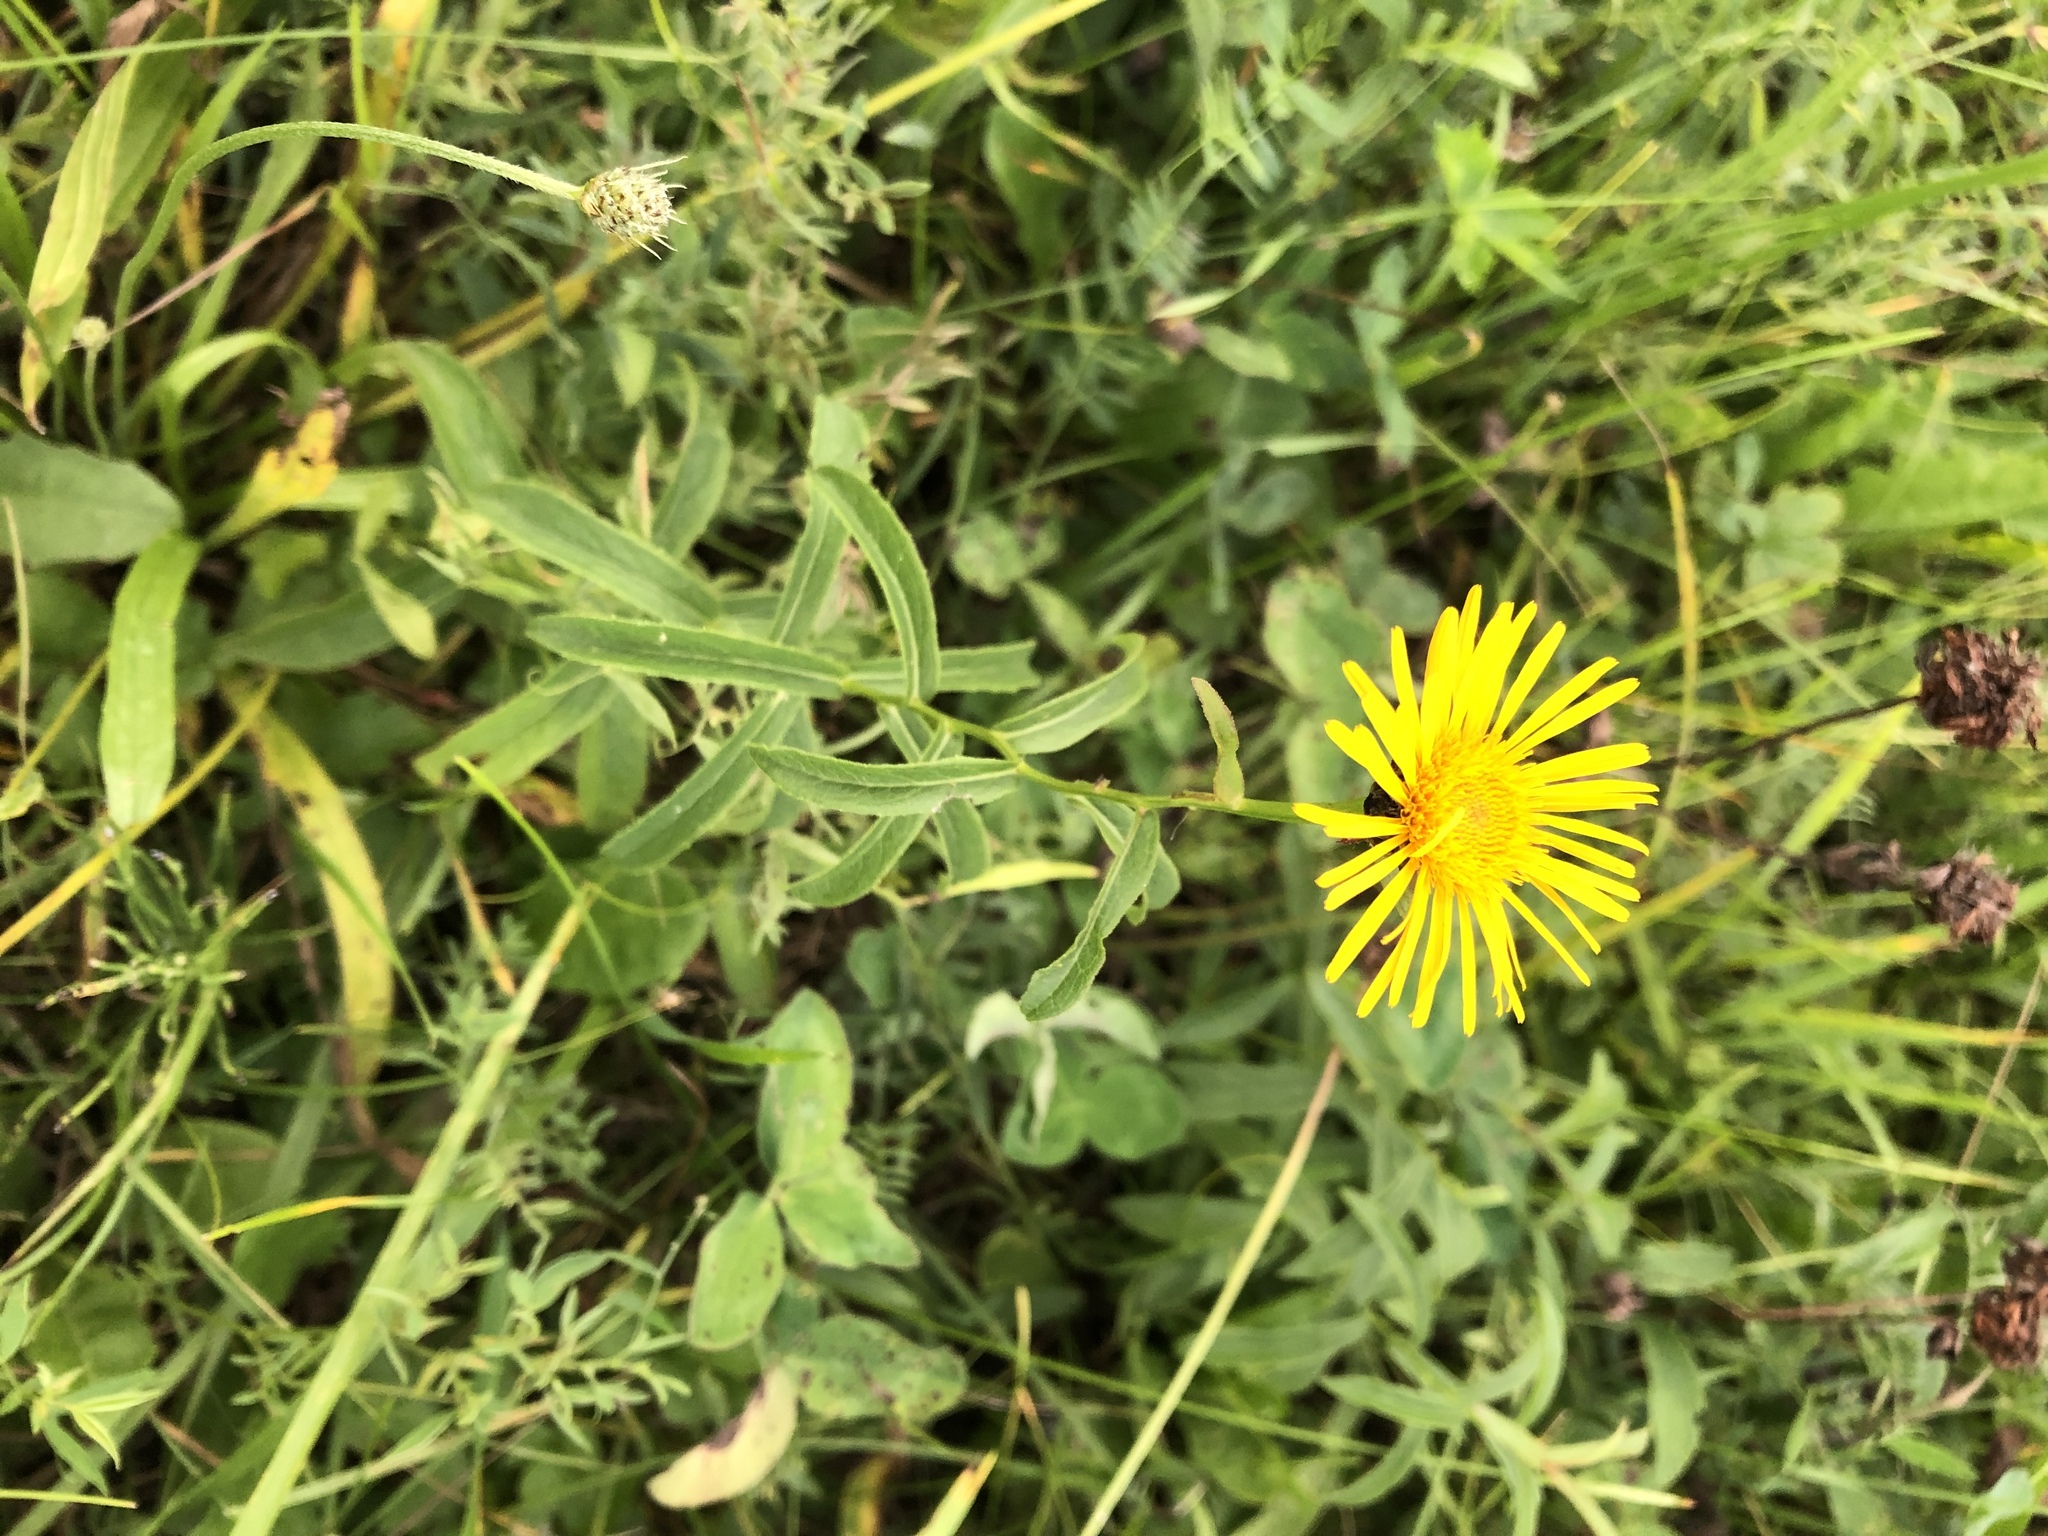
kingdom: Plantae
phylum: Tracheophyta
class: Magnoliopsida
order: Asterales
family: Asteraceae
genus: Pentanema
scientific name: Pentanema salicinum
